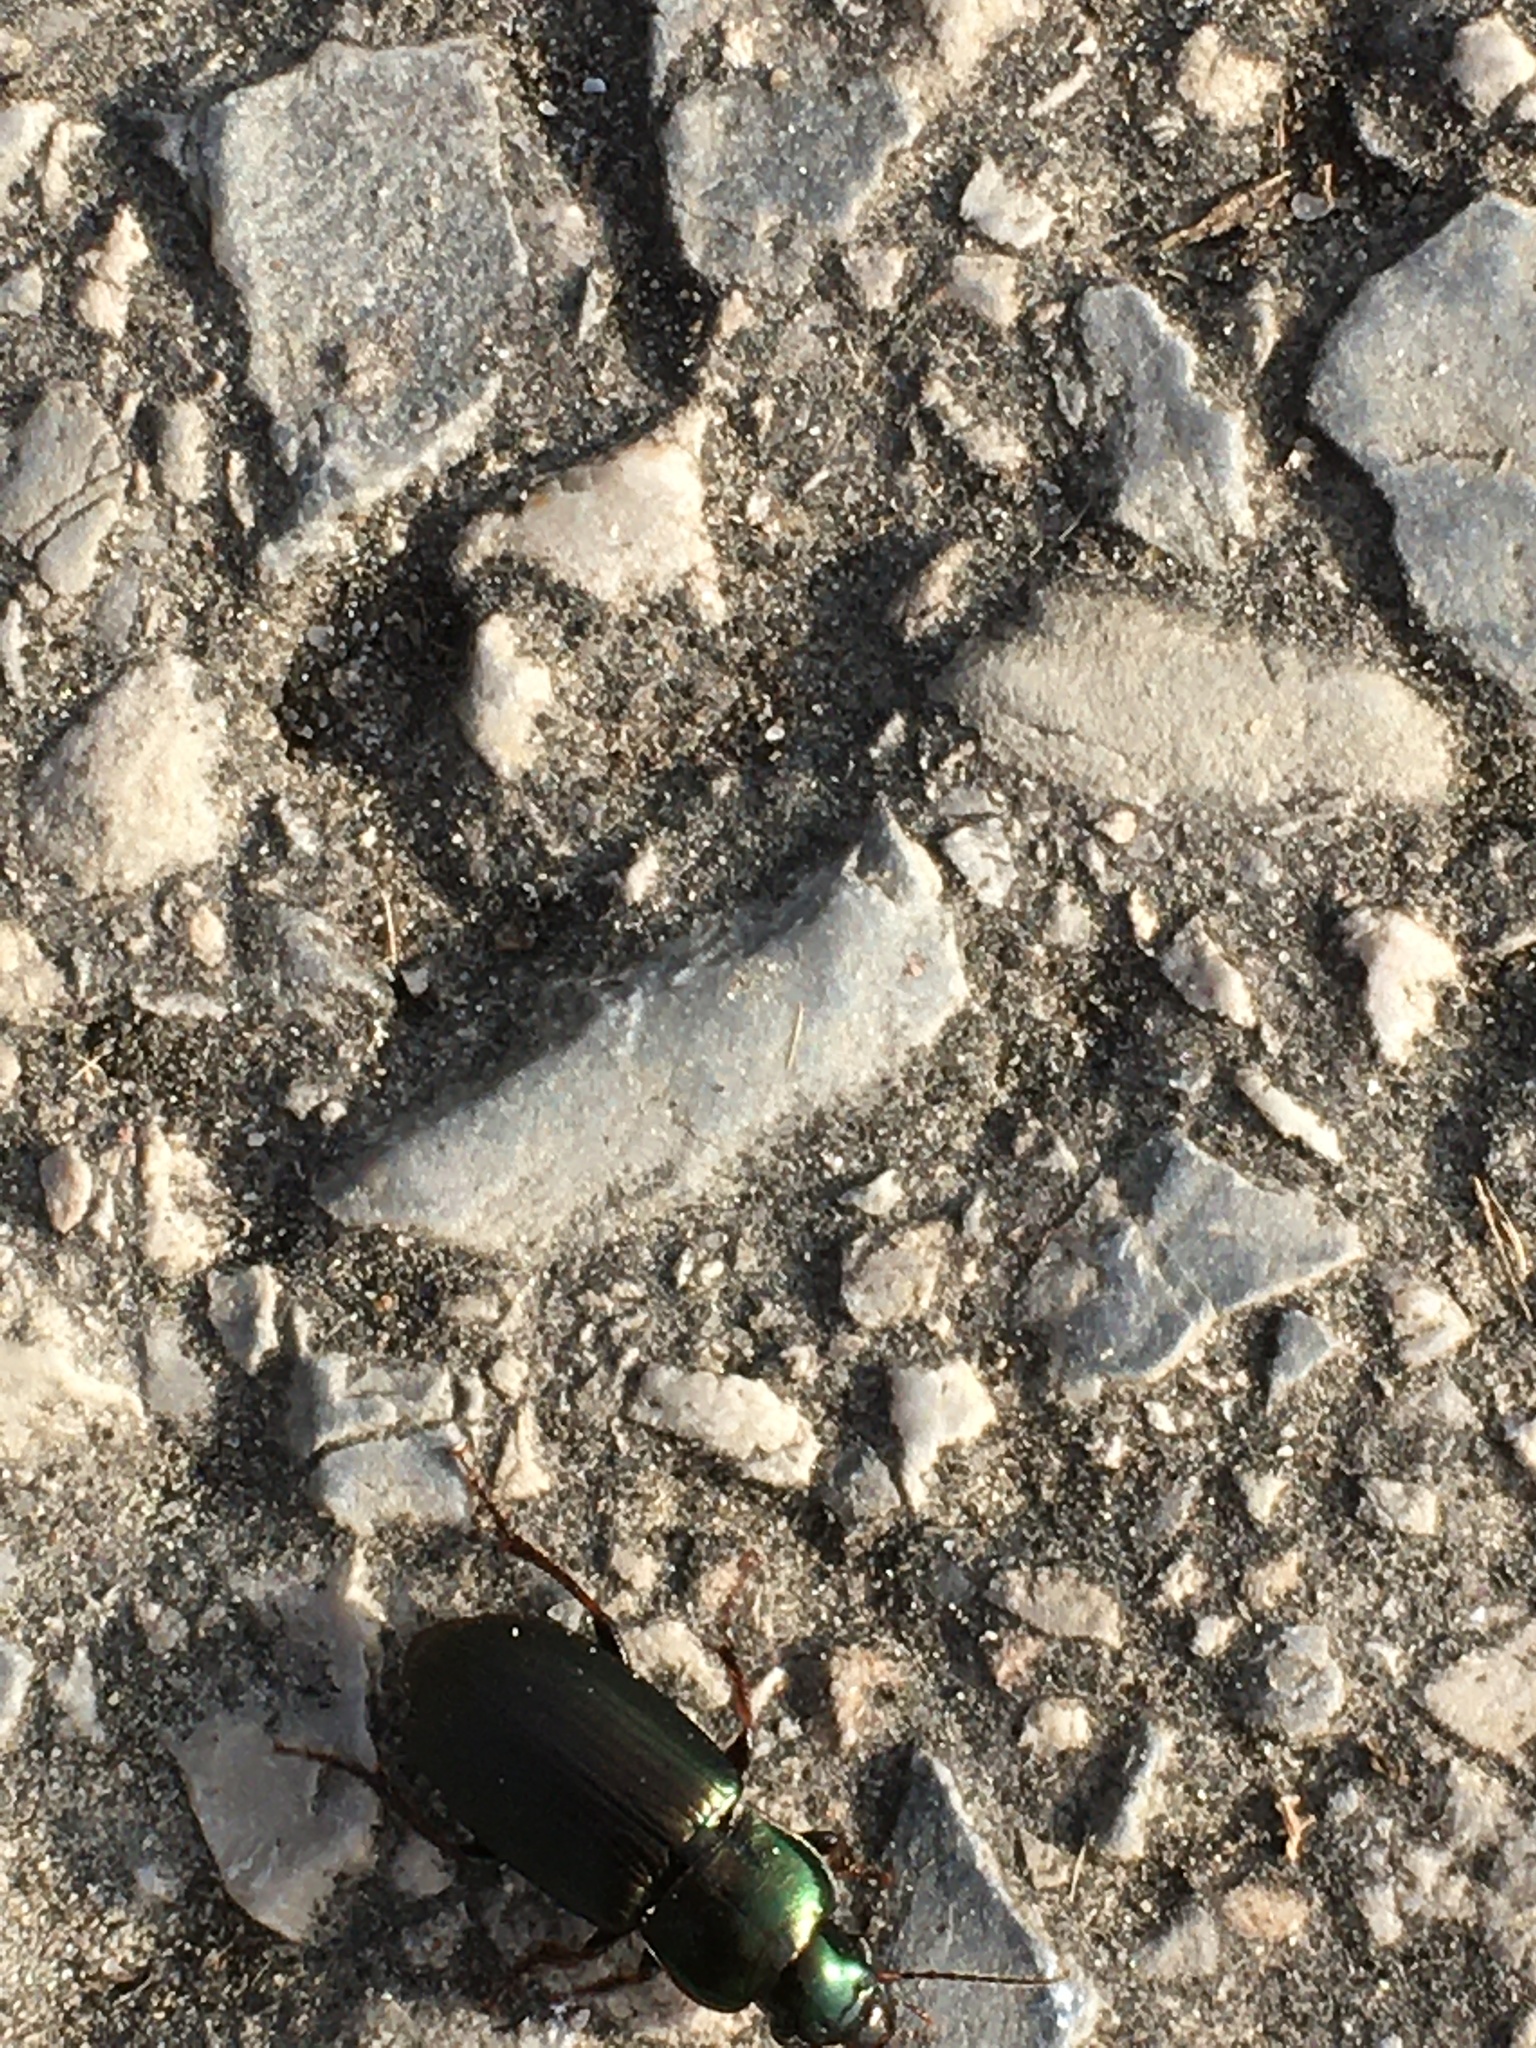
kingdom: Animalia
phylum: Arthropoda
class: Insecta
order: Coleoptera
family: Carabidae
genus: Harpalus
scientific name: Harpalus distinguendus
